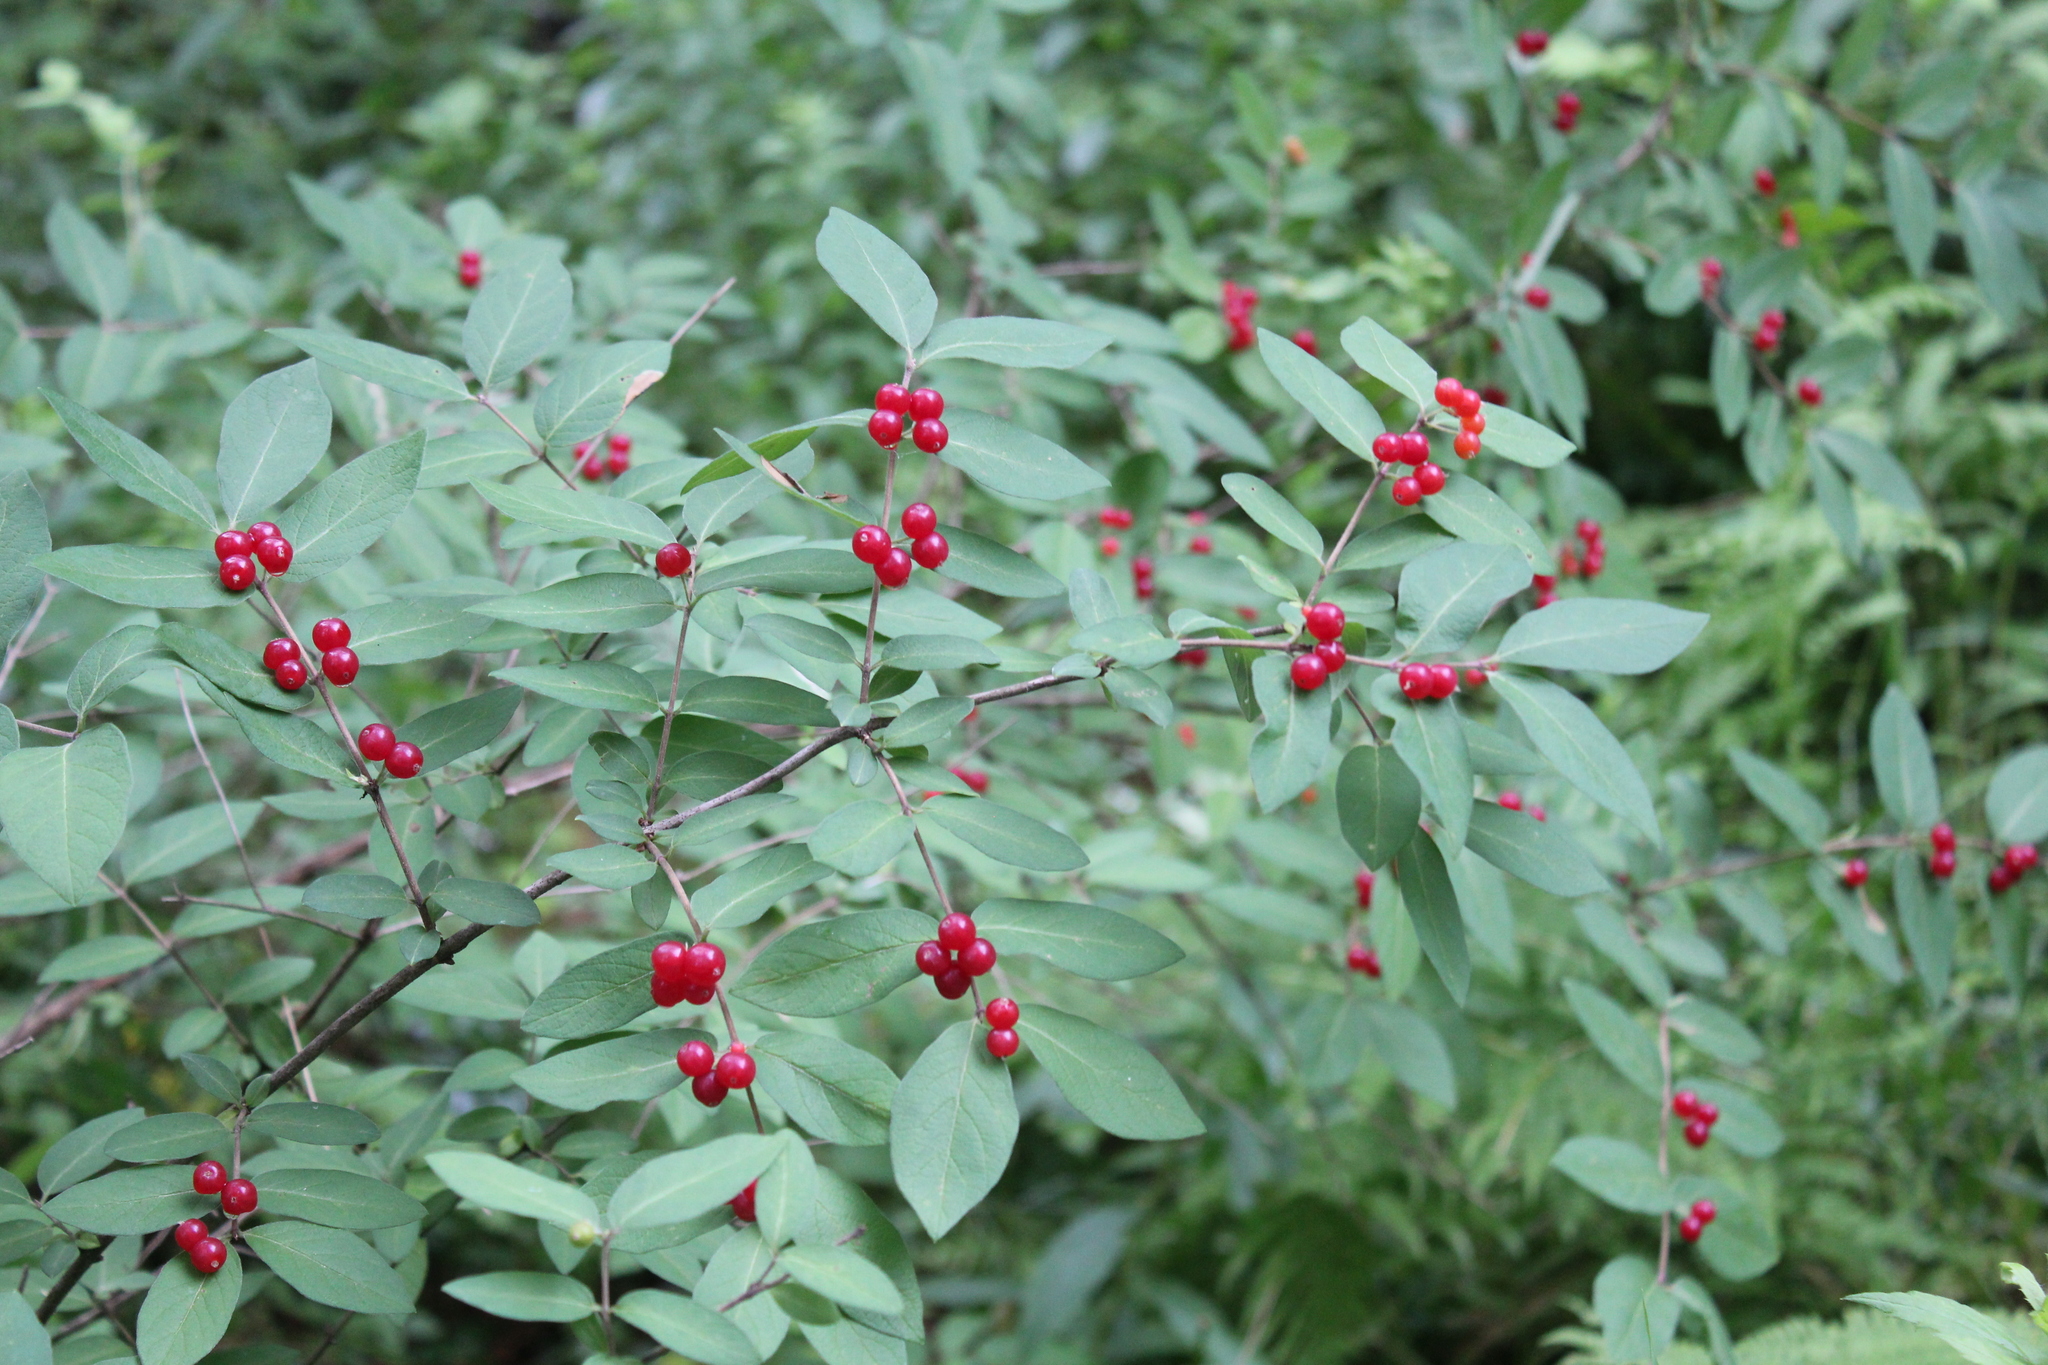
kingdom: Plantae
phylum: Tracheophyta
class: Magnoliopsida
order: Dipsacales
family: Caprifoliaceae
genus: Lonicera
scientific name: Lonicera morrowii
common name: Morrow's honeysuckle
